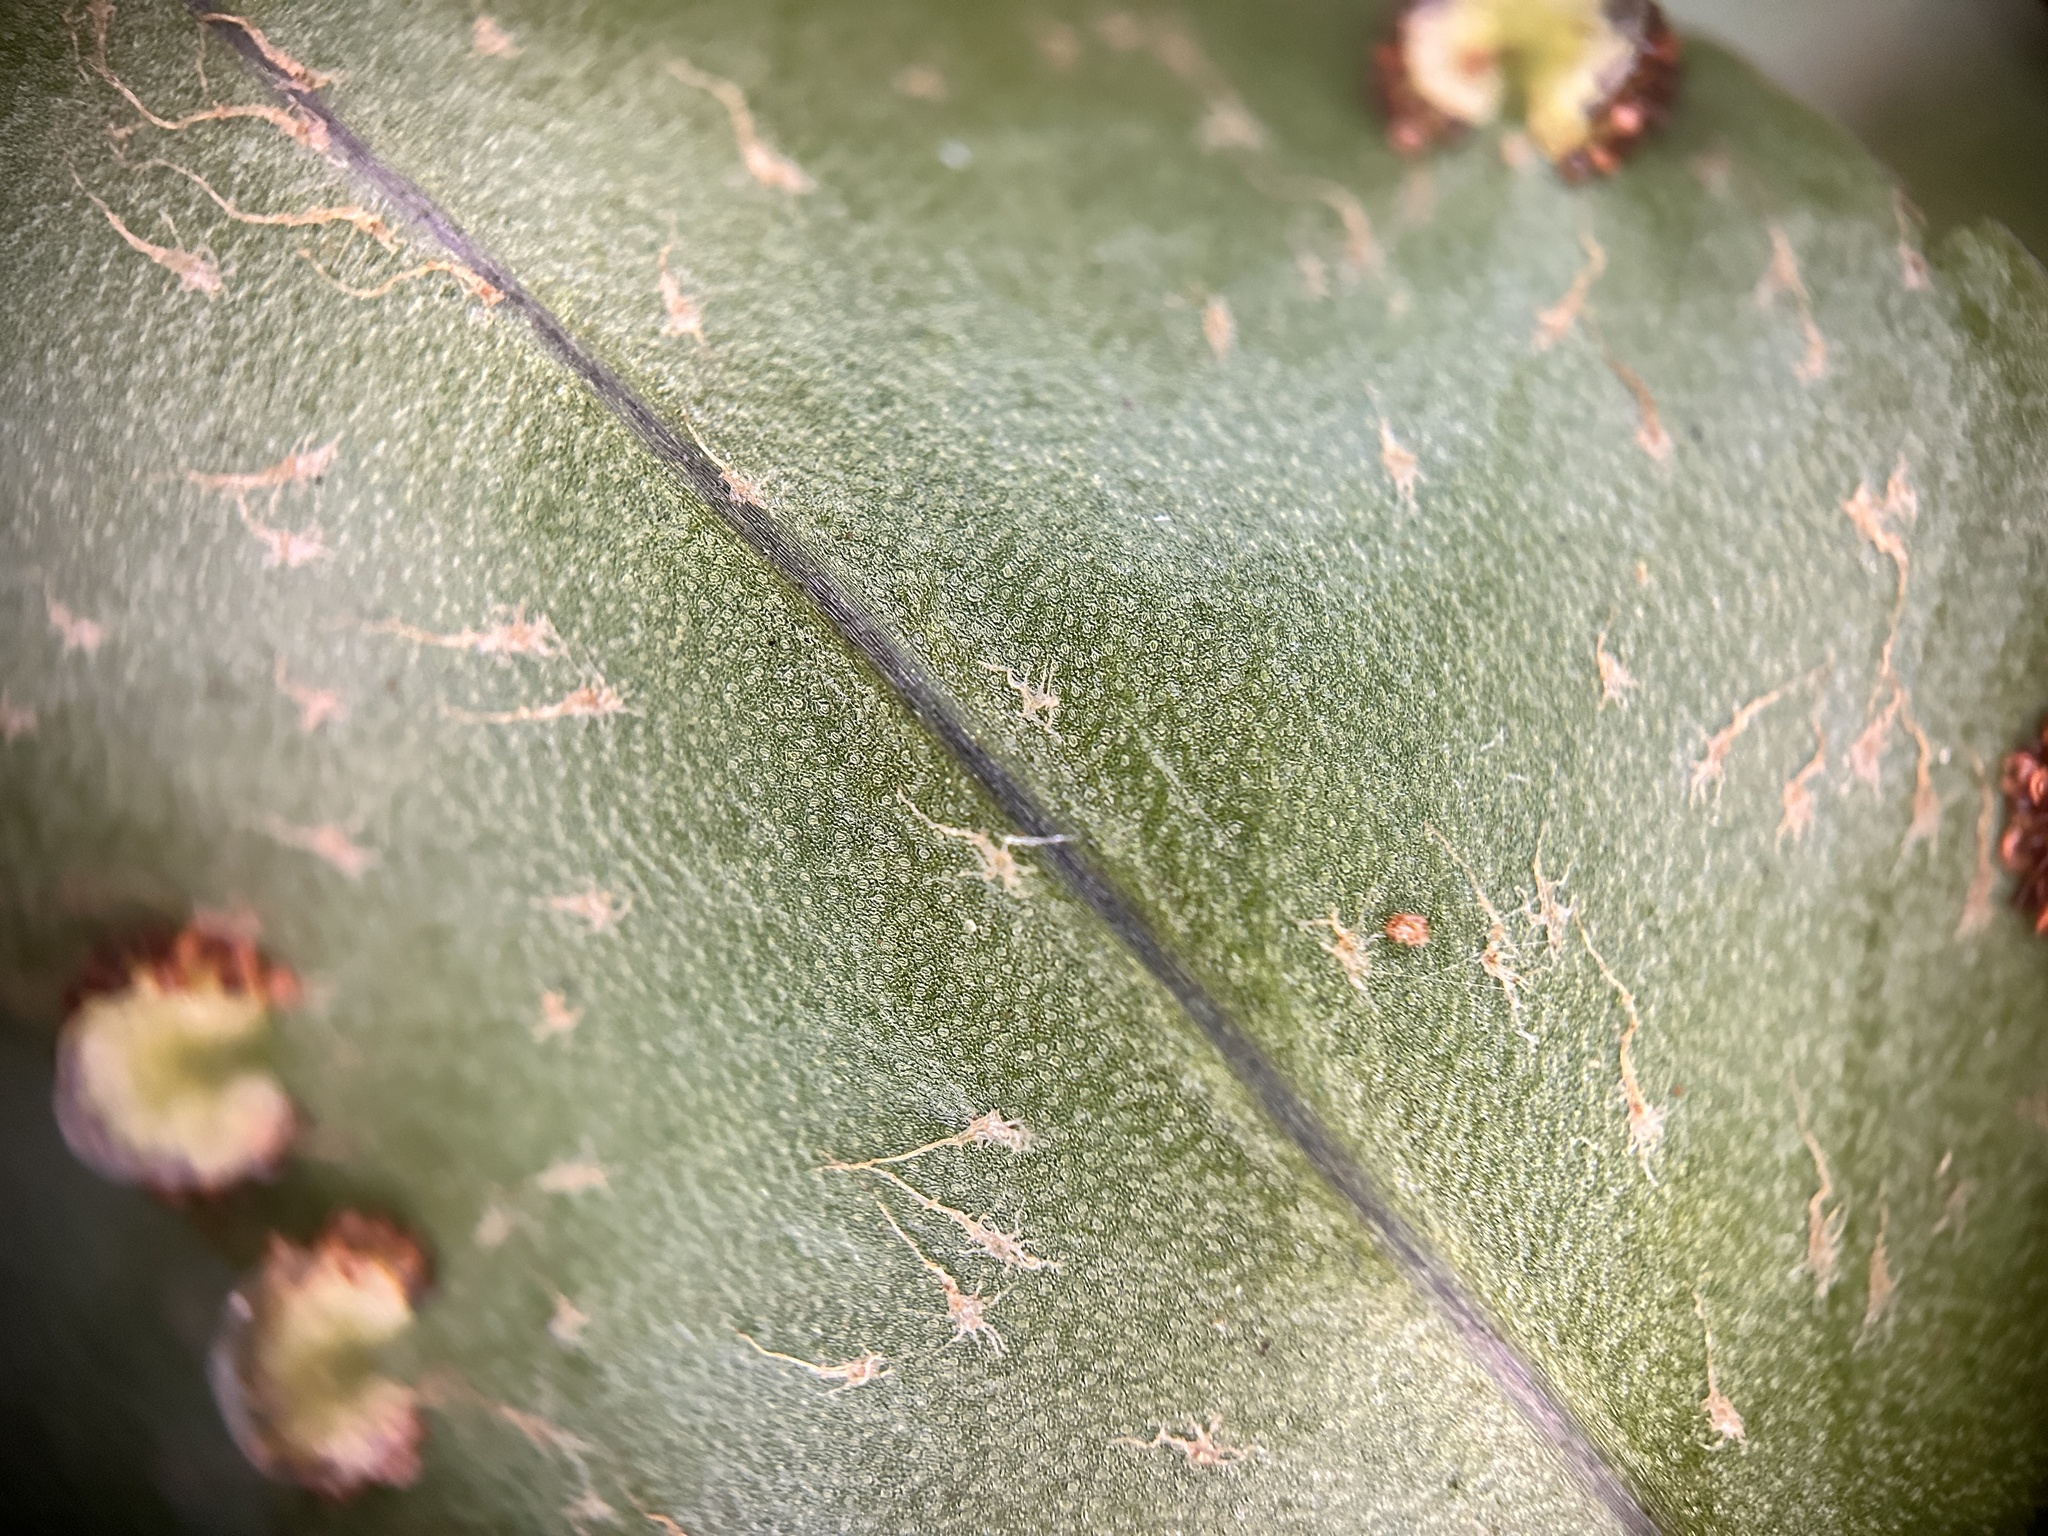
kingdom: Plantae
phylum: Tracheophyta
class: Polypodiopsida
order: Polypodiales
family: Nephrolepidaceae
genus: Nephrolepis
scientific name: Nephrolepis brownii
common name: Asian swordfern
